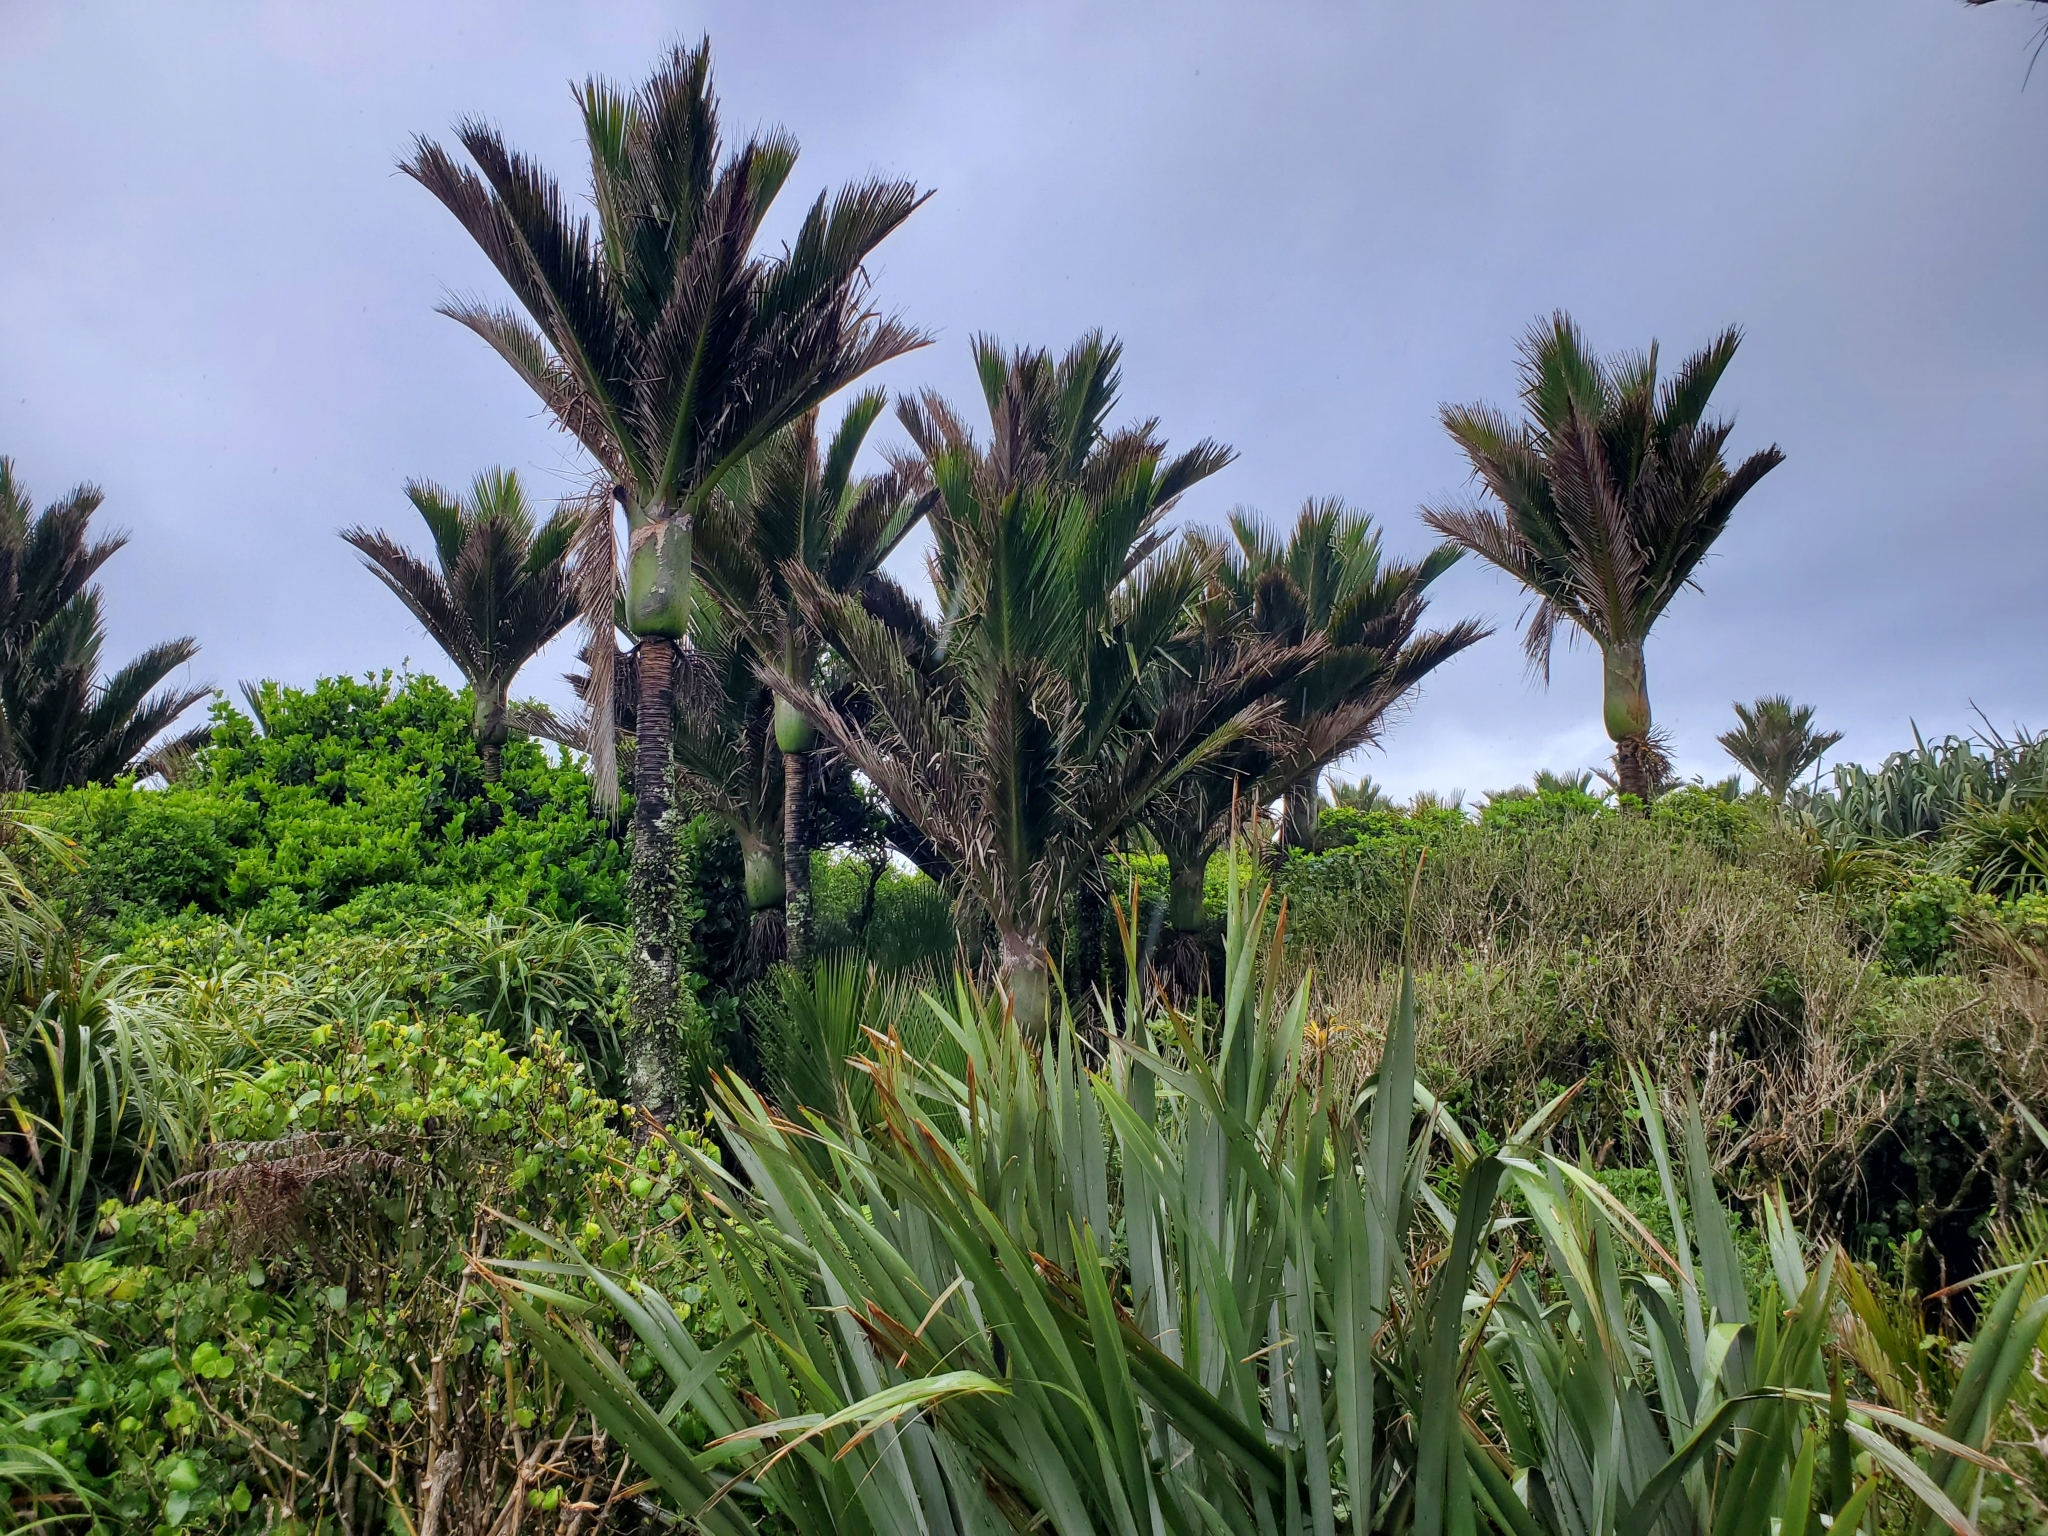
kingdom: Plantae
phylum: Tracheophyta
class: Liliopsida
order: Arecales
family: Arecaceae
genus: Rhopalostylis
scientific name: Rhopalostylis sapida
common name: Feather-duster palm
